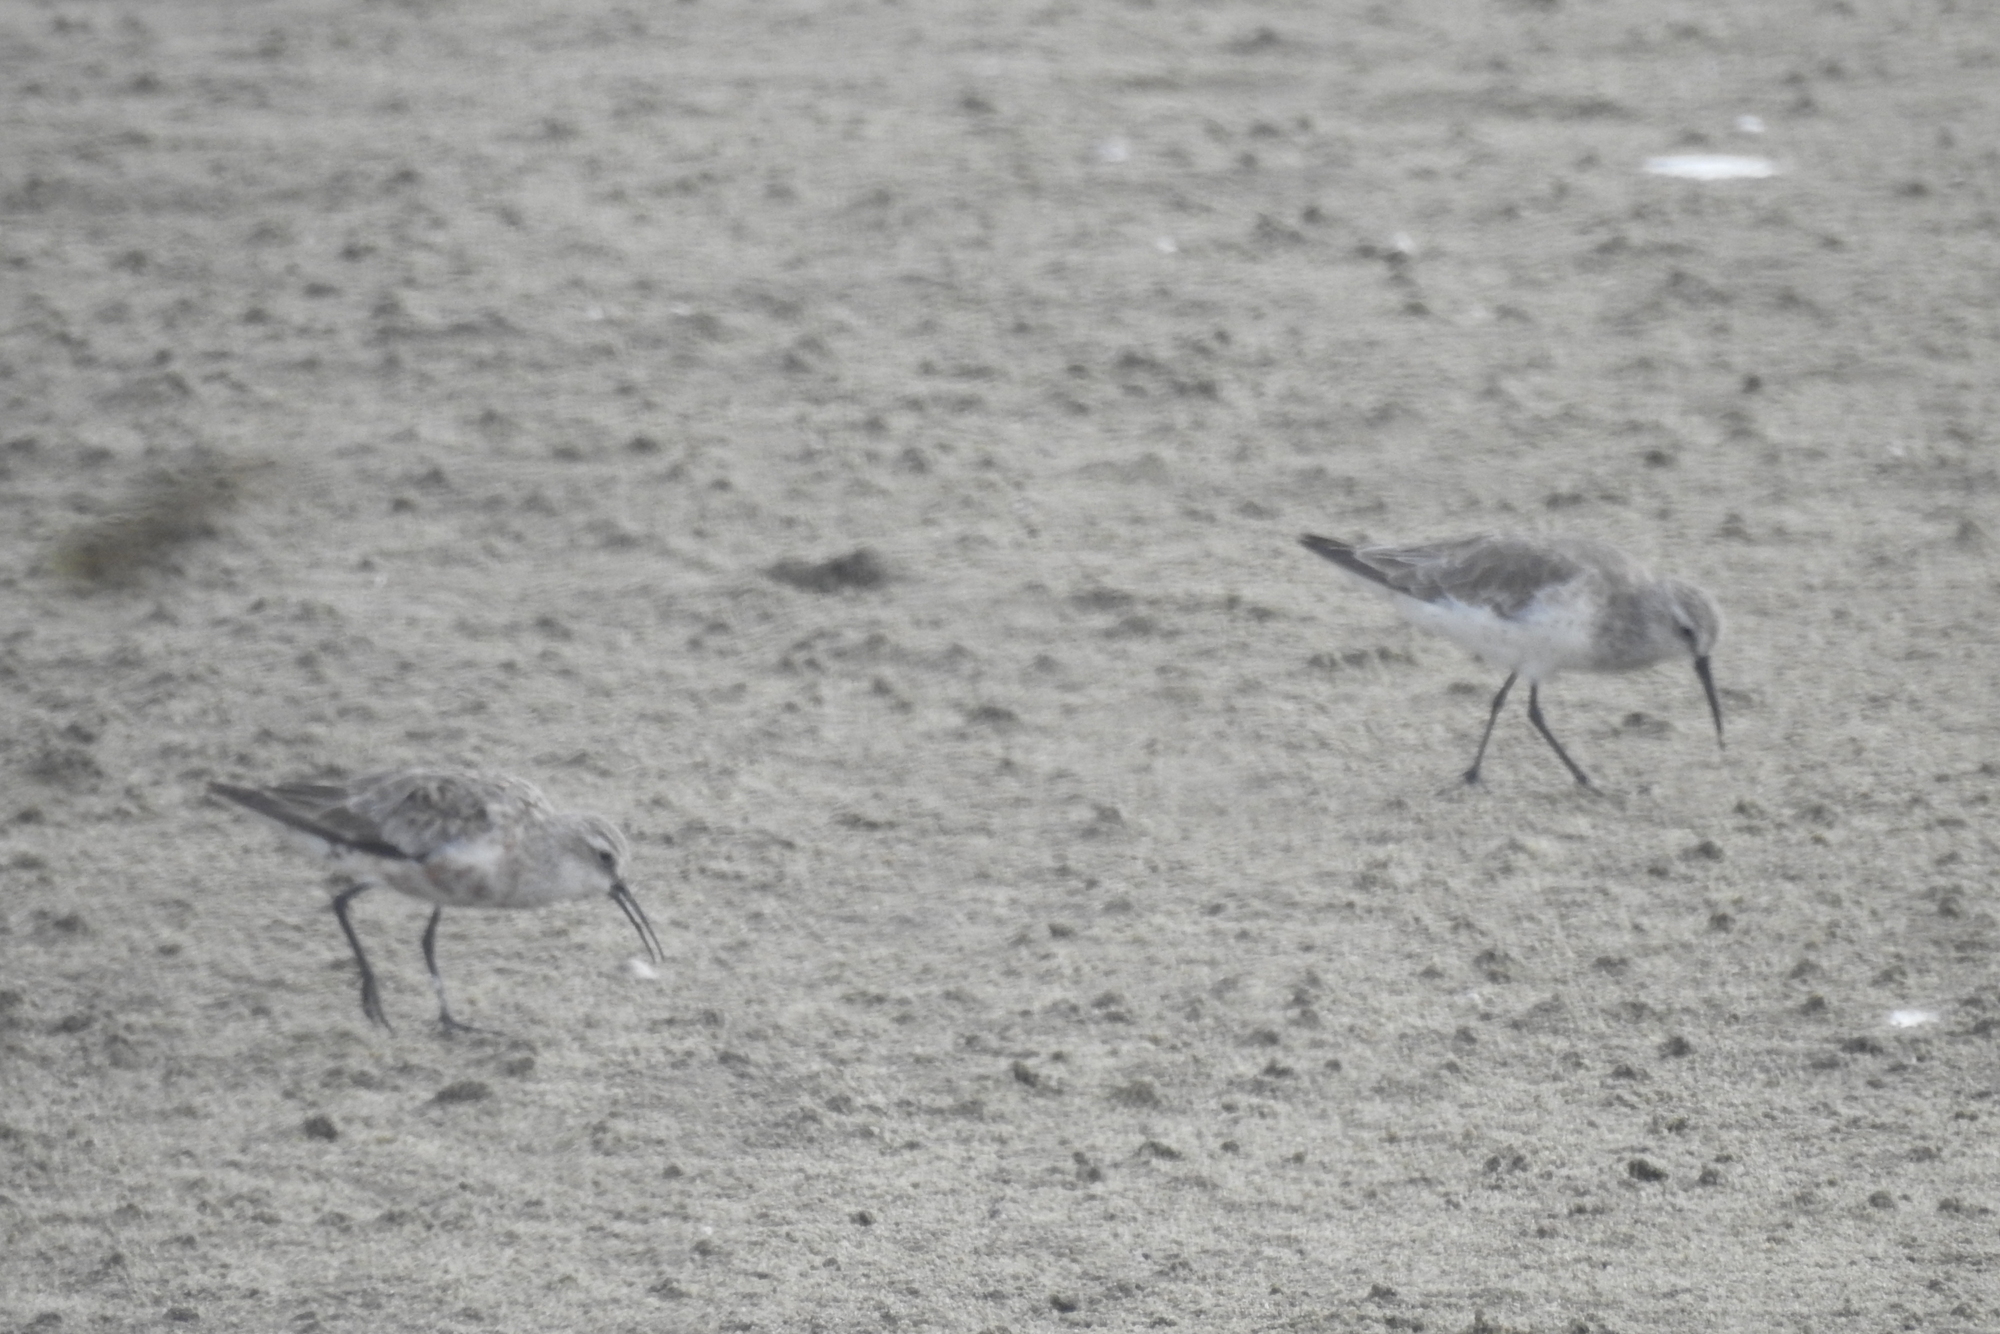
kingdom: Animalia
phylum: Chordata
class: Aves
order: Charadriiformes
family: Scolopacidae
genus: Calidris
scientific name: Calidris ferruginea
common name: Curlew sandpiper
